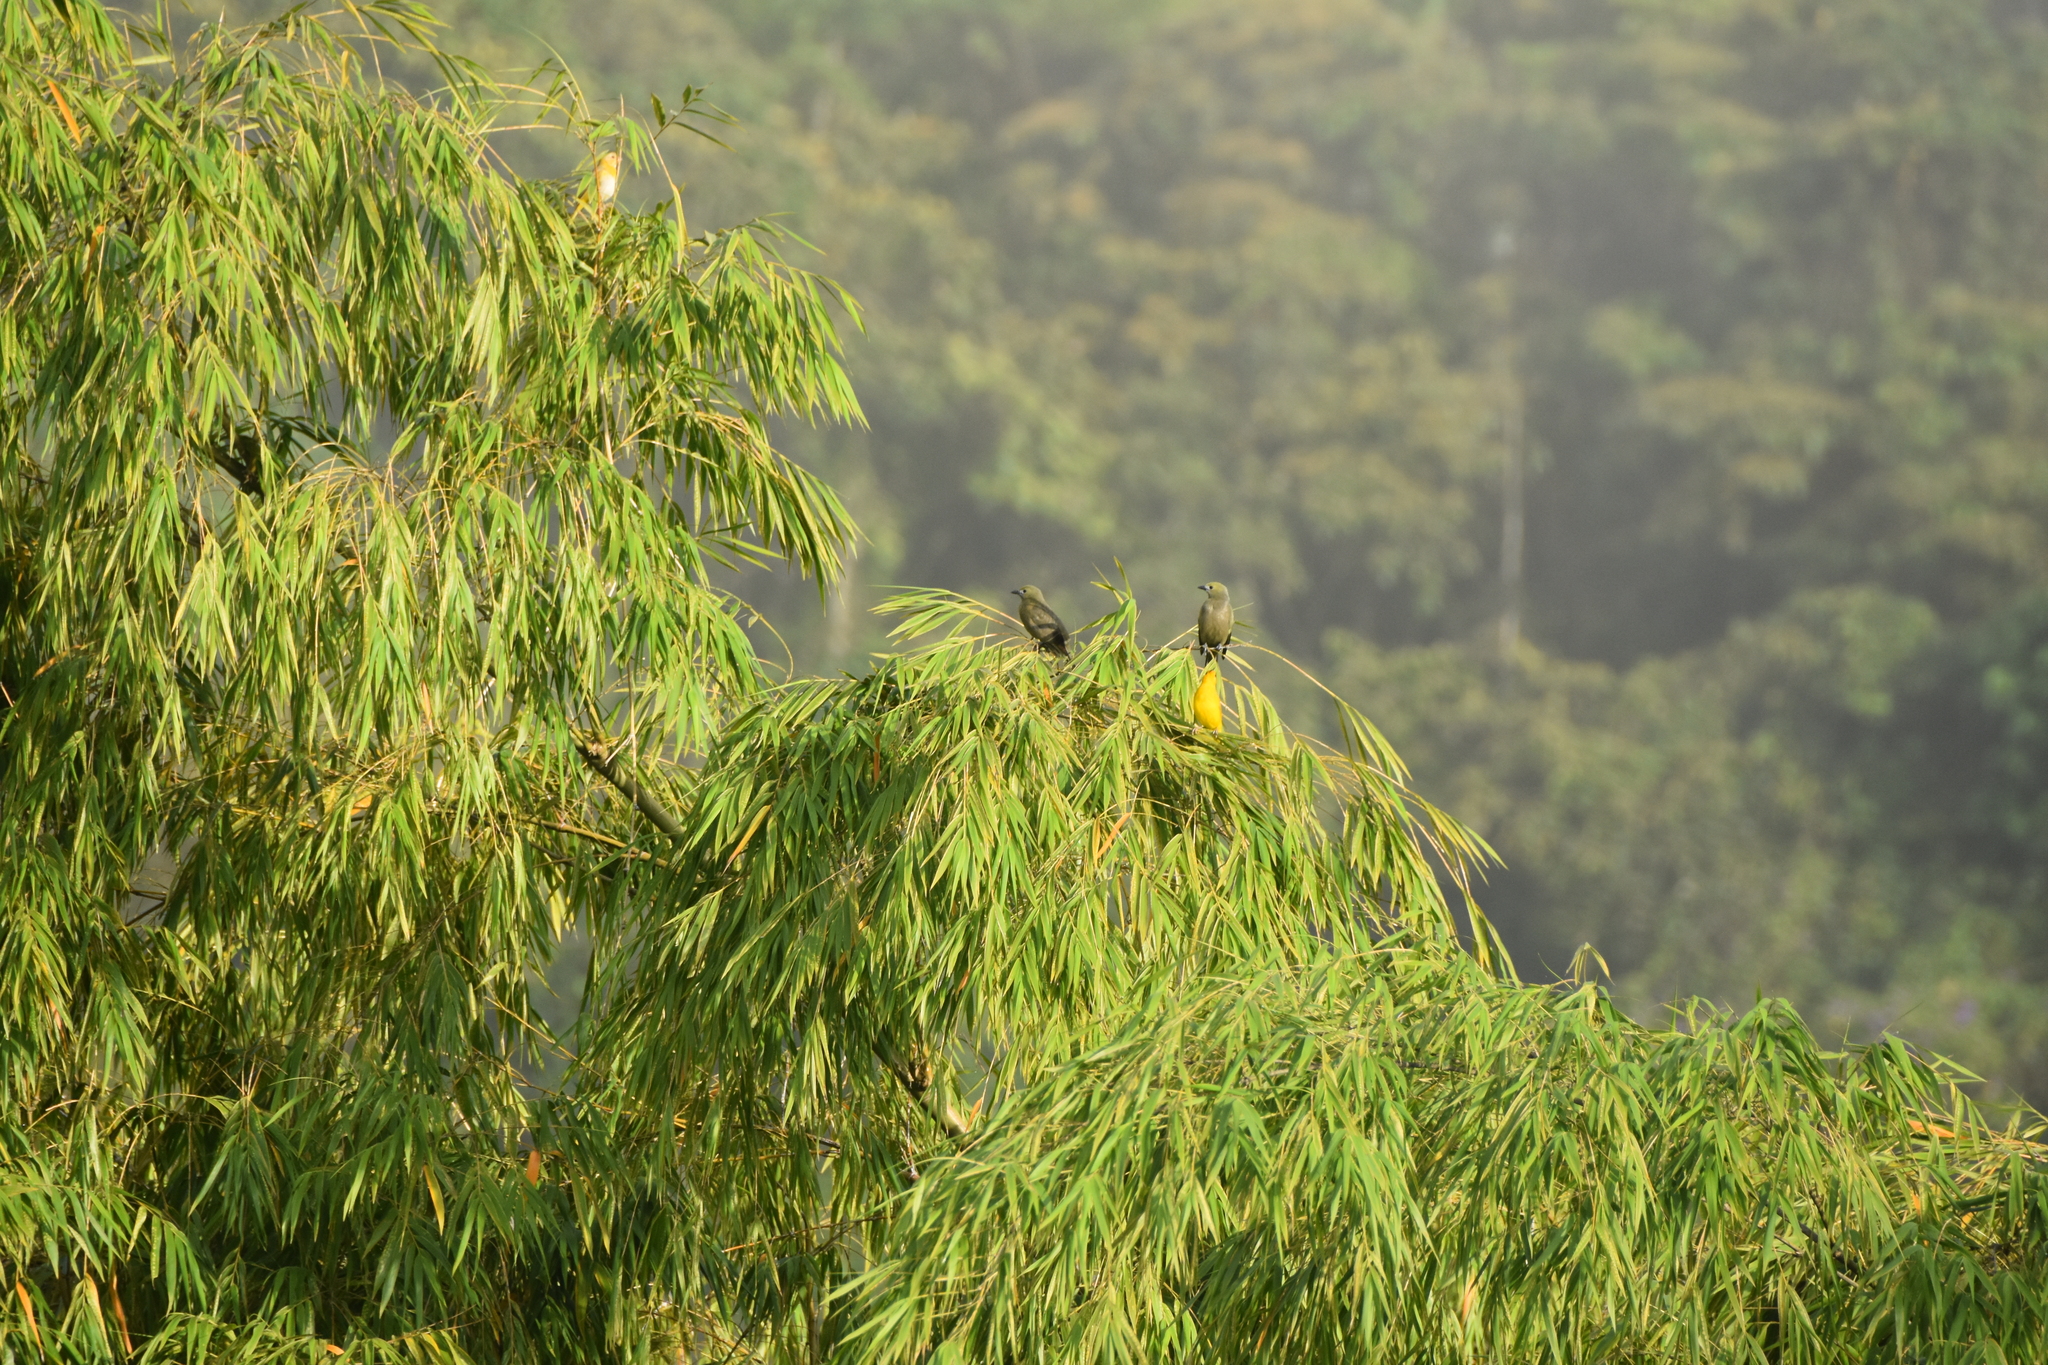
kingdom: Animalia
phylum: Chordata
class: Aves
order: Passeriformes
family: Thraupidae
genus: Thraupis
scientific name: Thraupis palmarum
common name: Palm tanager
